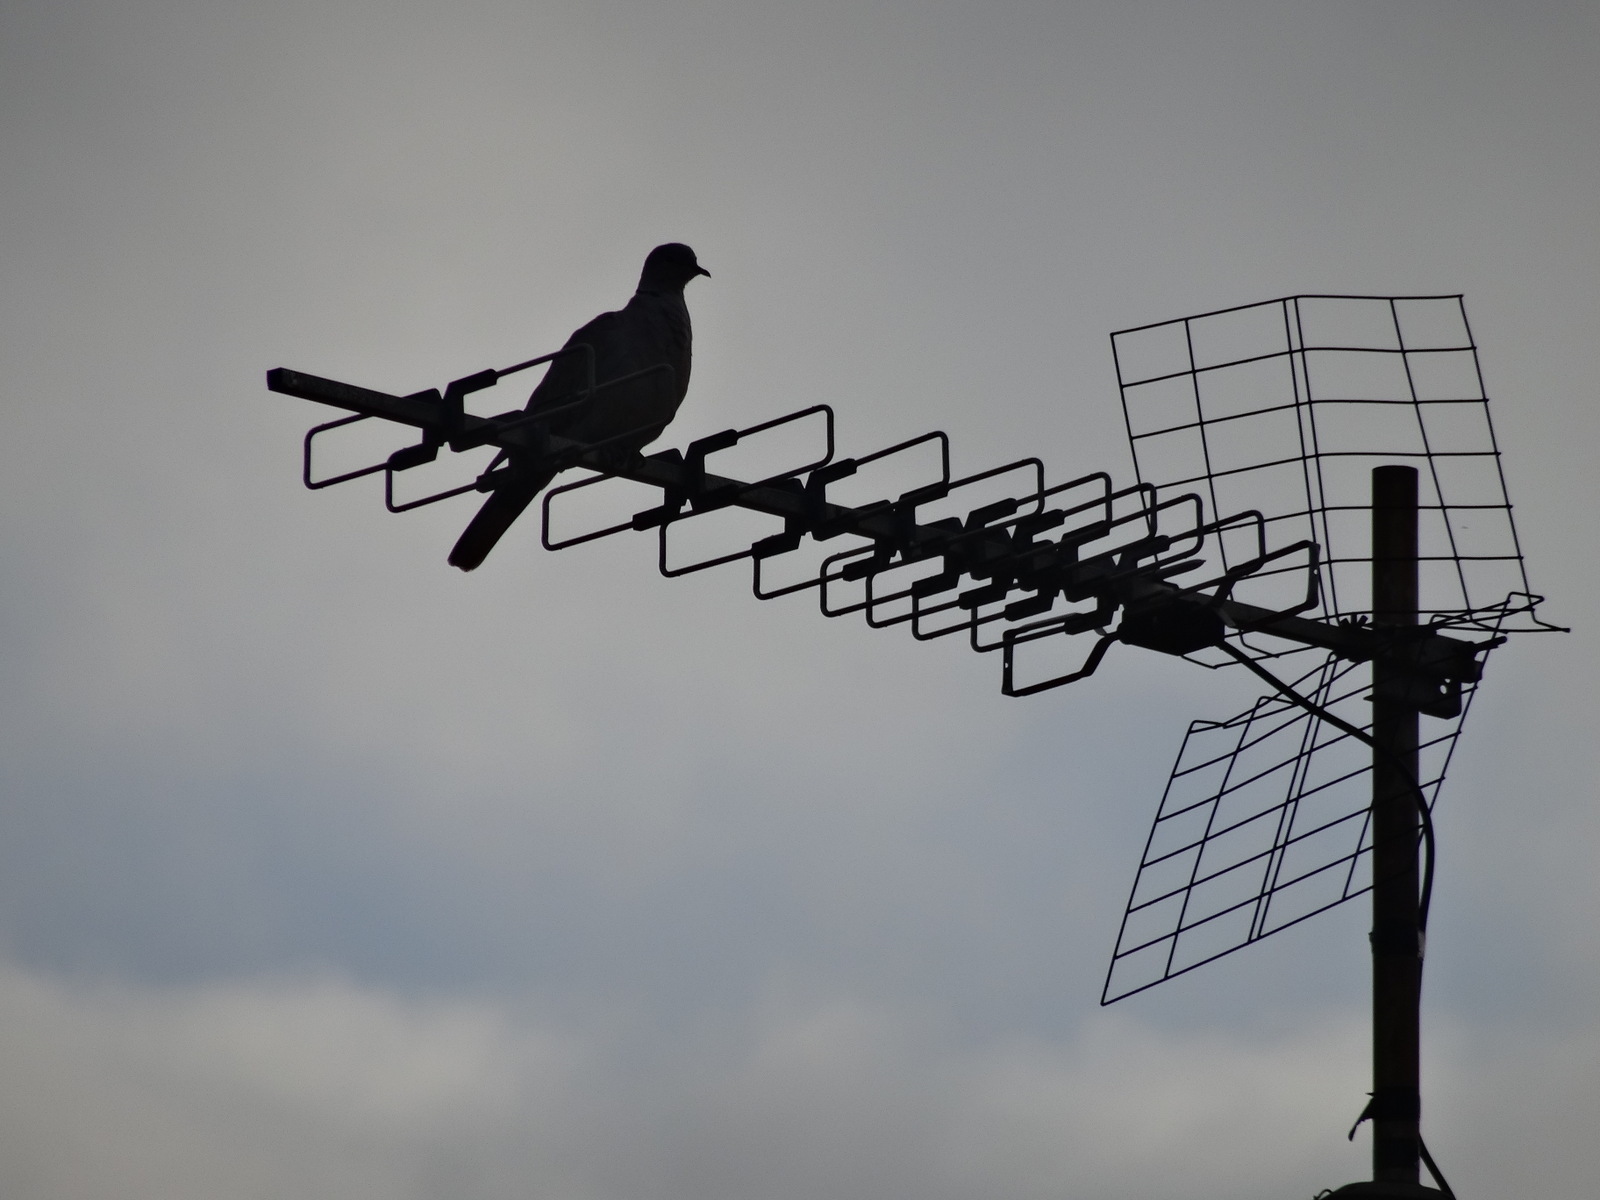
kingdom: Animalia
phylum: Chordata
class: Aves
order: Columbiformes
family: Columbidae
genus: Streptopelia
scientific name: Streptopelia decaocto
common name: Eurasian collared dove
